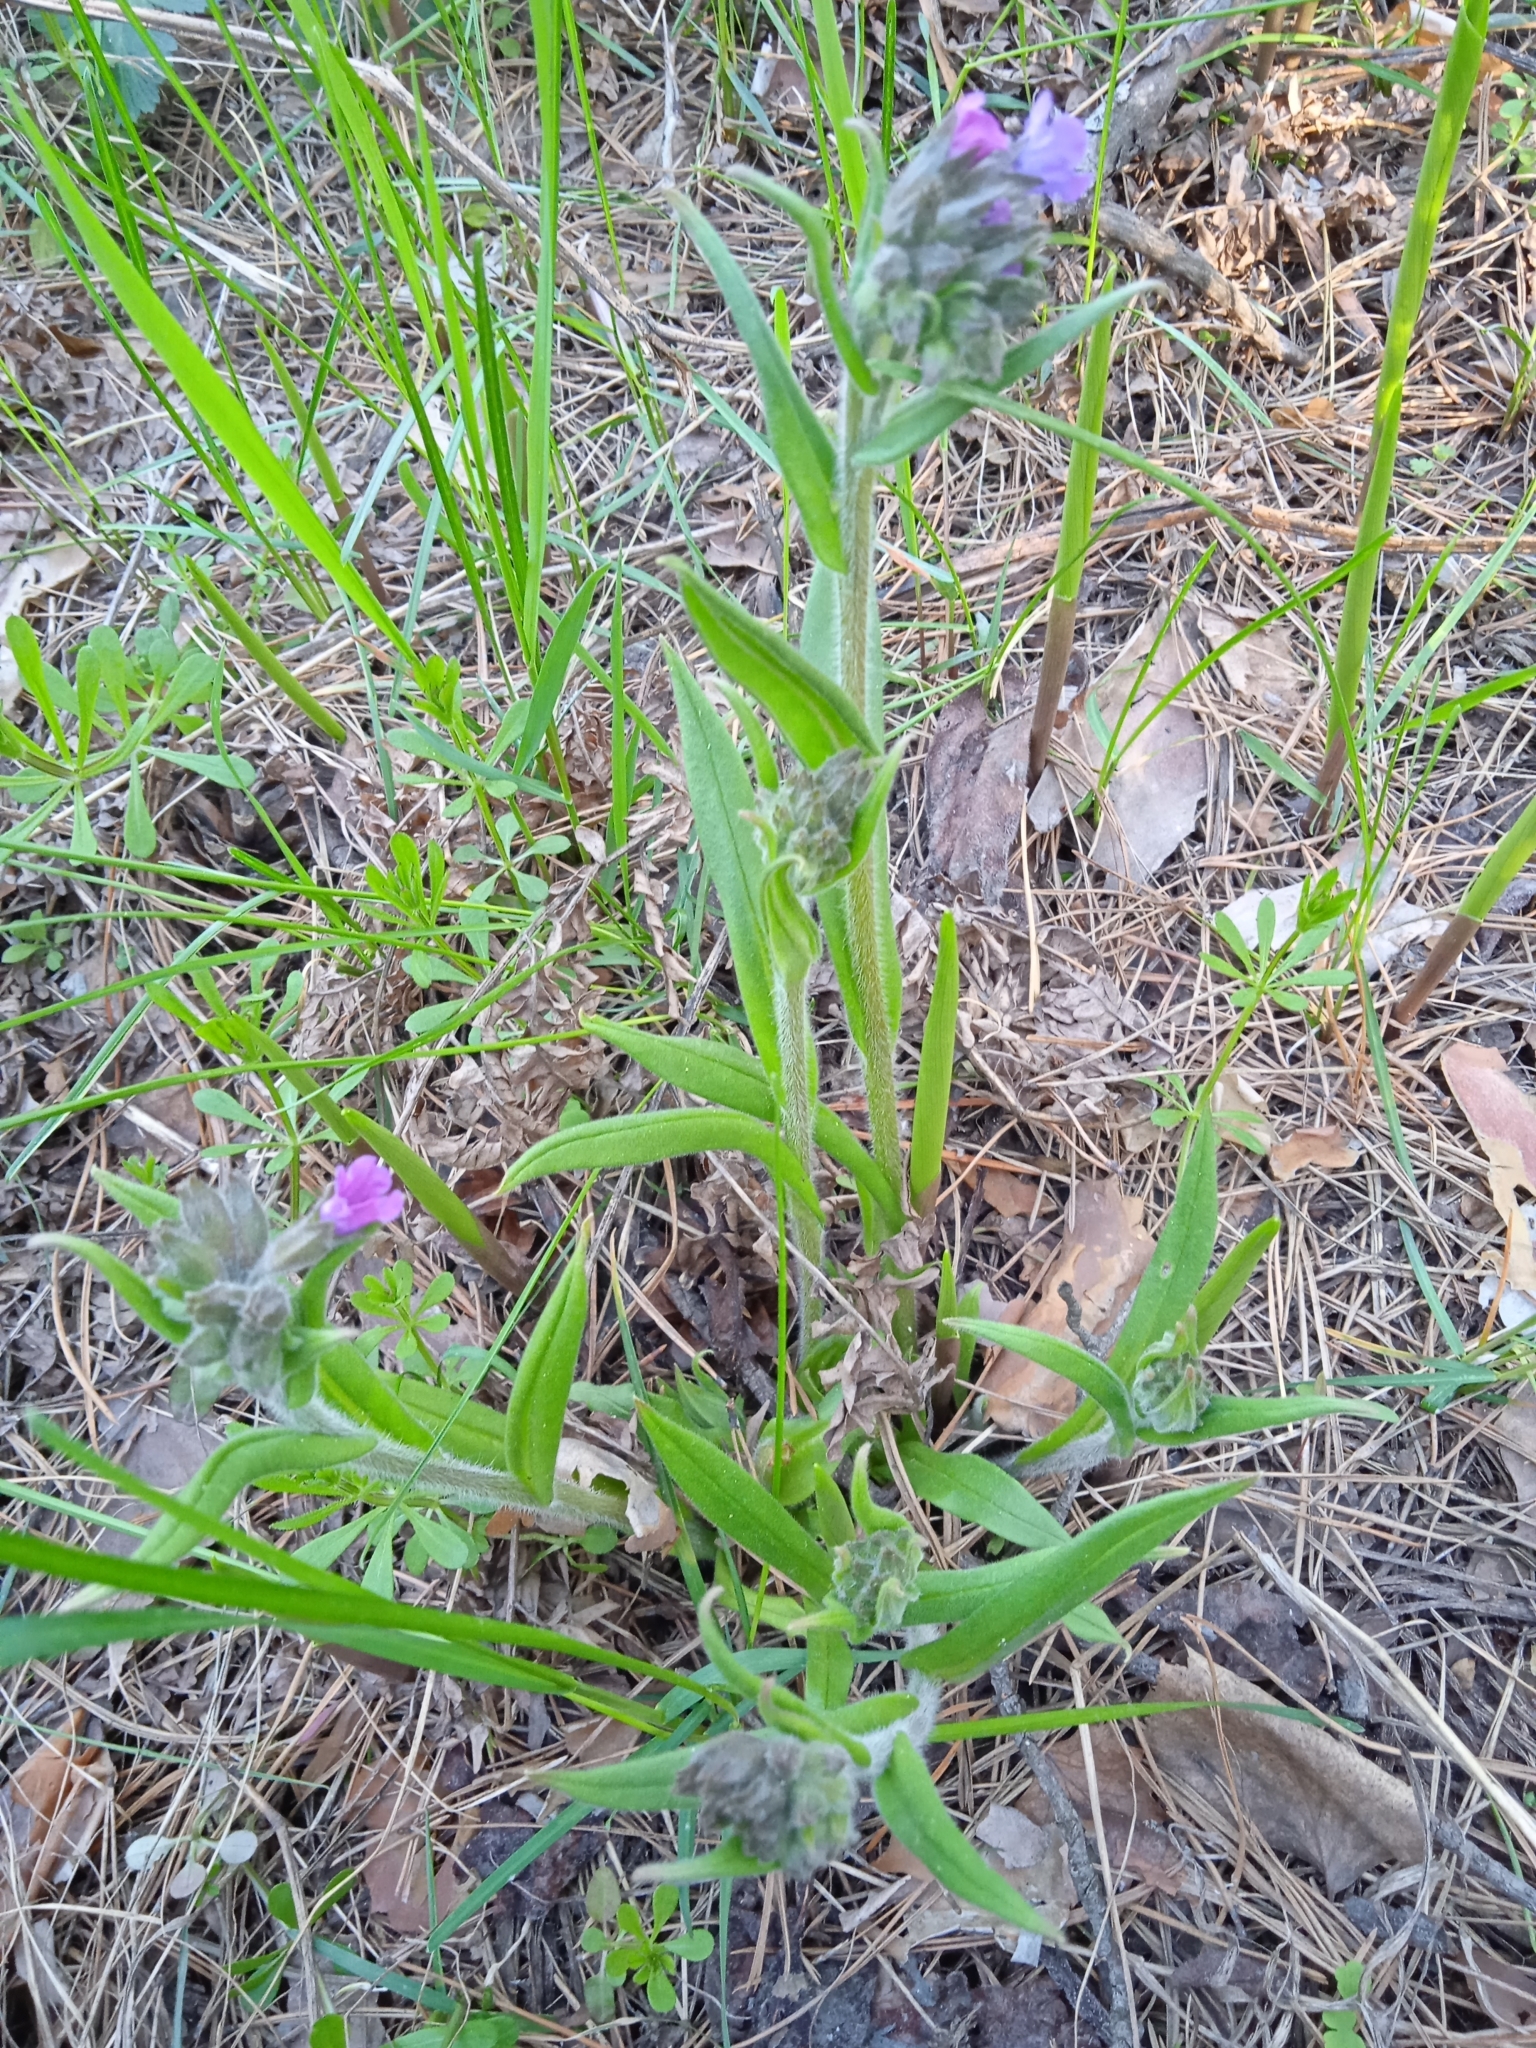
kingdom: Plantae
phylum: Tracheophyta
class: Magnoliopsida
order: Boraginales
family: Boraginaceae
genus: Pulmonaria
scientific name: Pulmonaria angustifolia
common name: Blue cowslip
